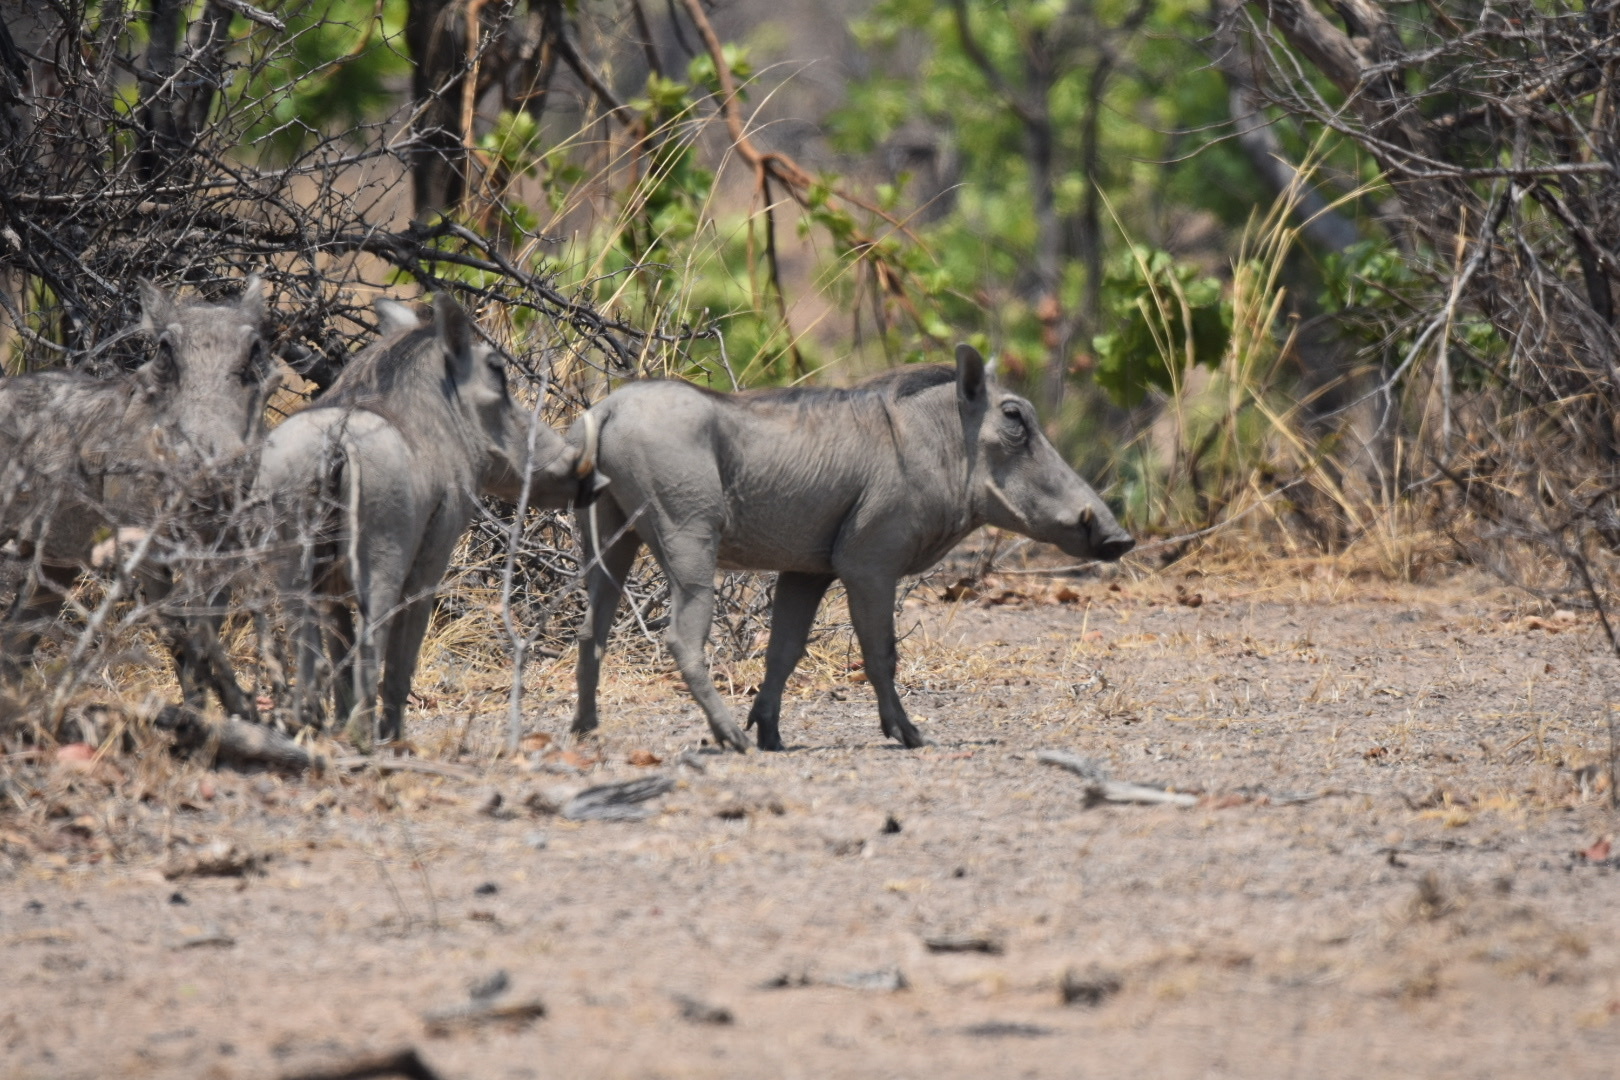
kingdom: Animalia
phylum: Chordata
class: Mammalia
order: Artiodactyla
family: Suidae
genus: Phacochoerus
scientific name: Phacochoerus africanus
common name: Common warthog
